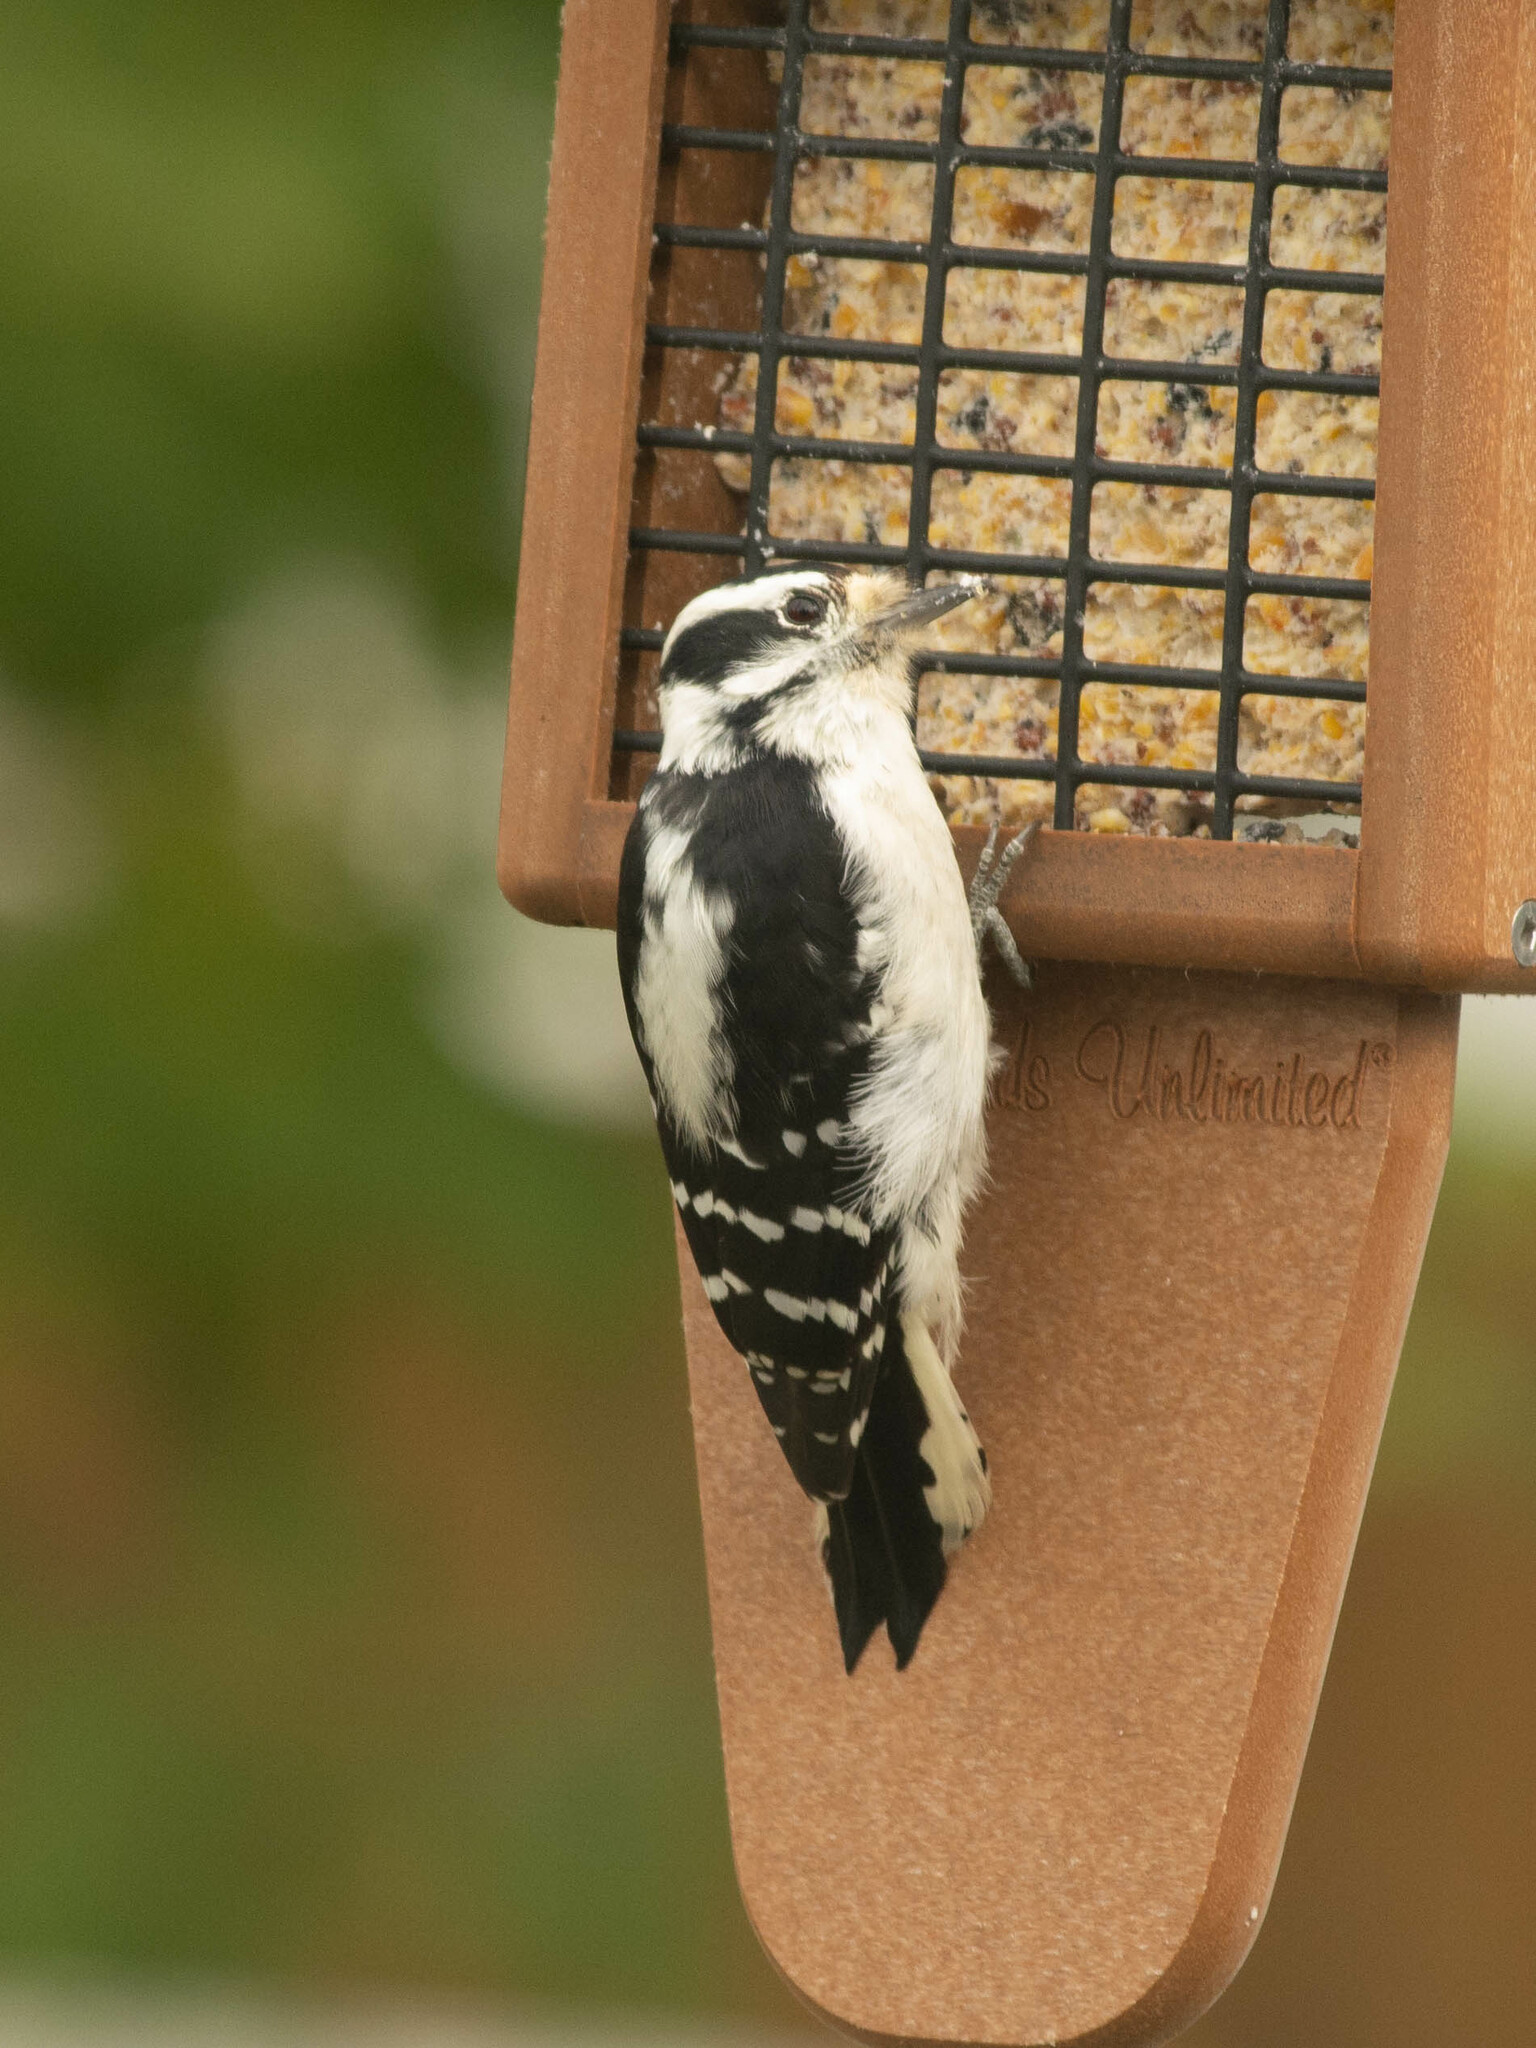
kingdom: Animalia
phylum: Chordata
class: Aves
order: Piciformes
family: Picidae
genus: Dryobates
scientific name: Dryobates pubescens
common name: Downy woodpecker
